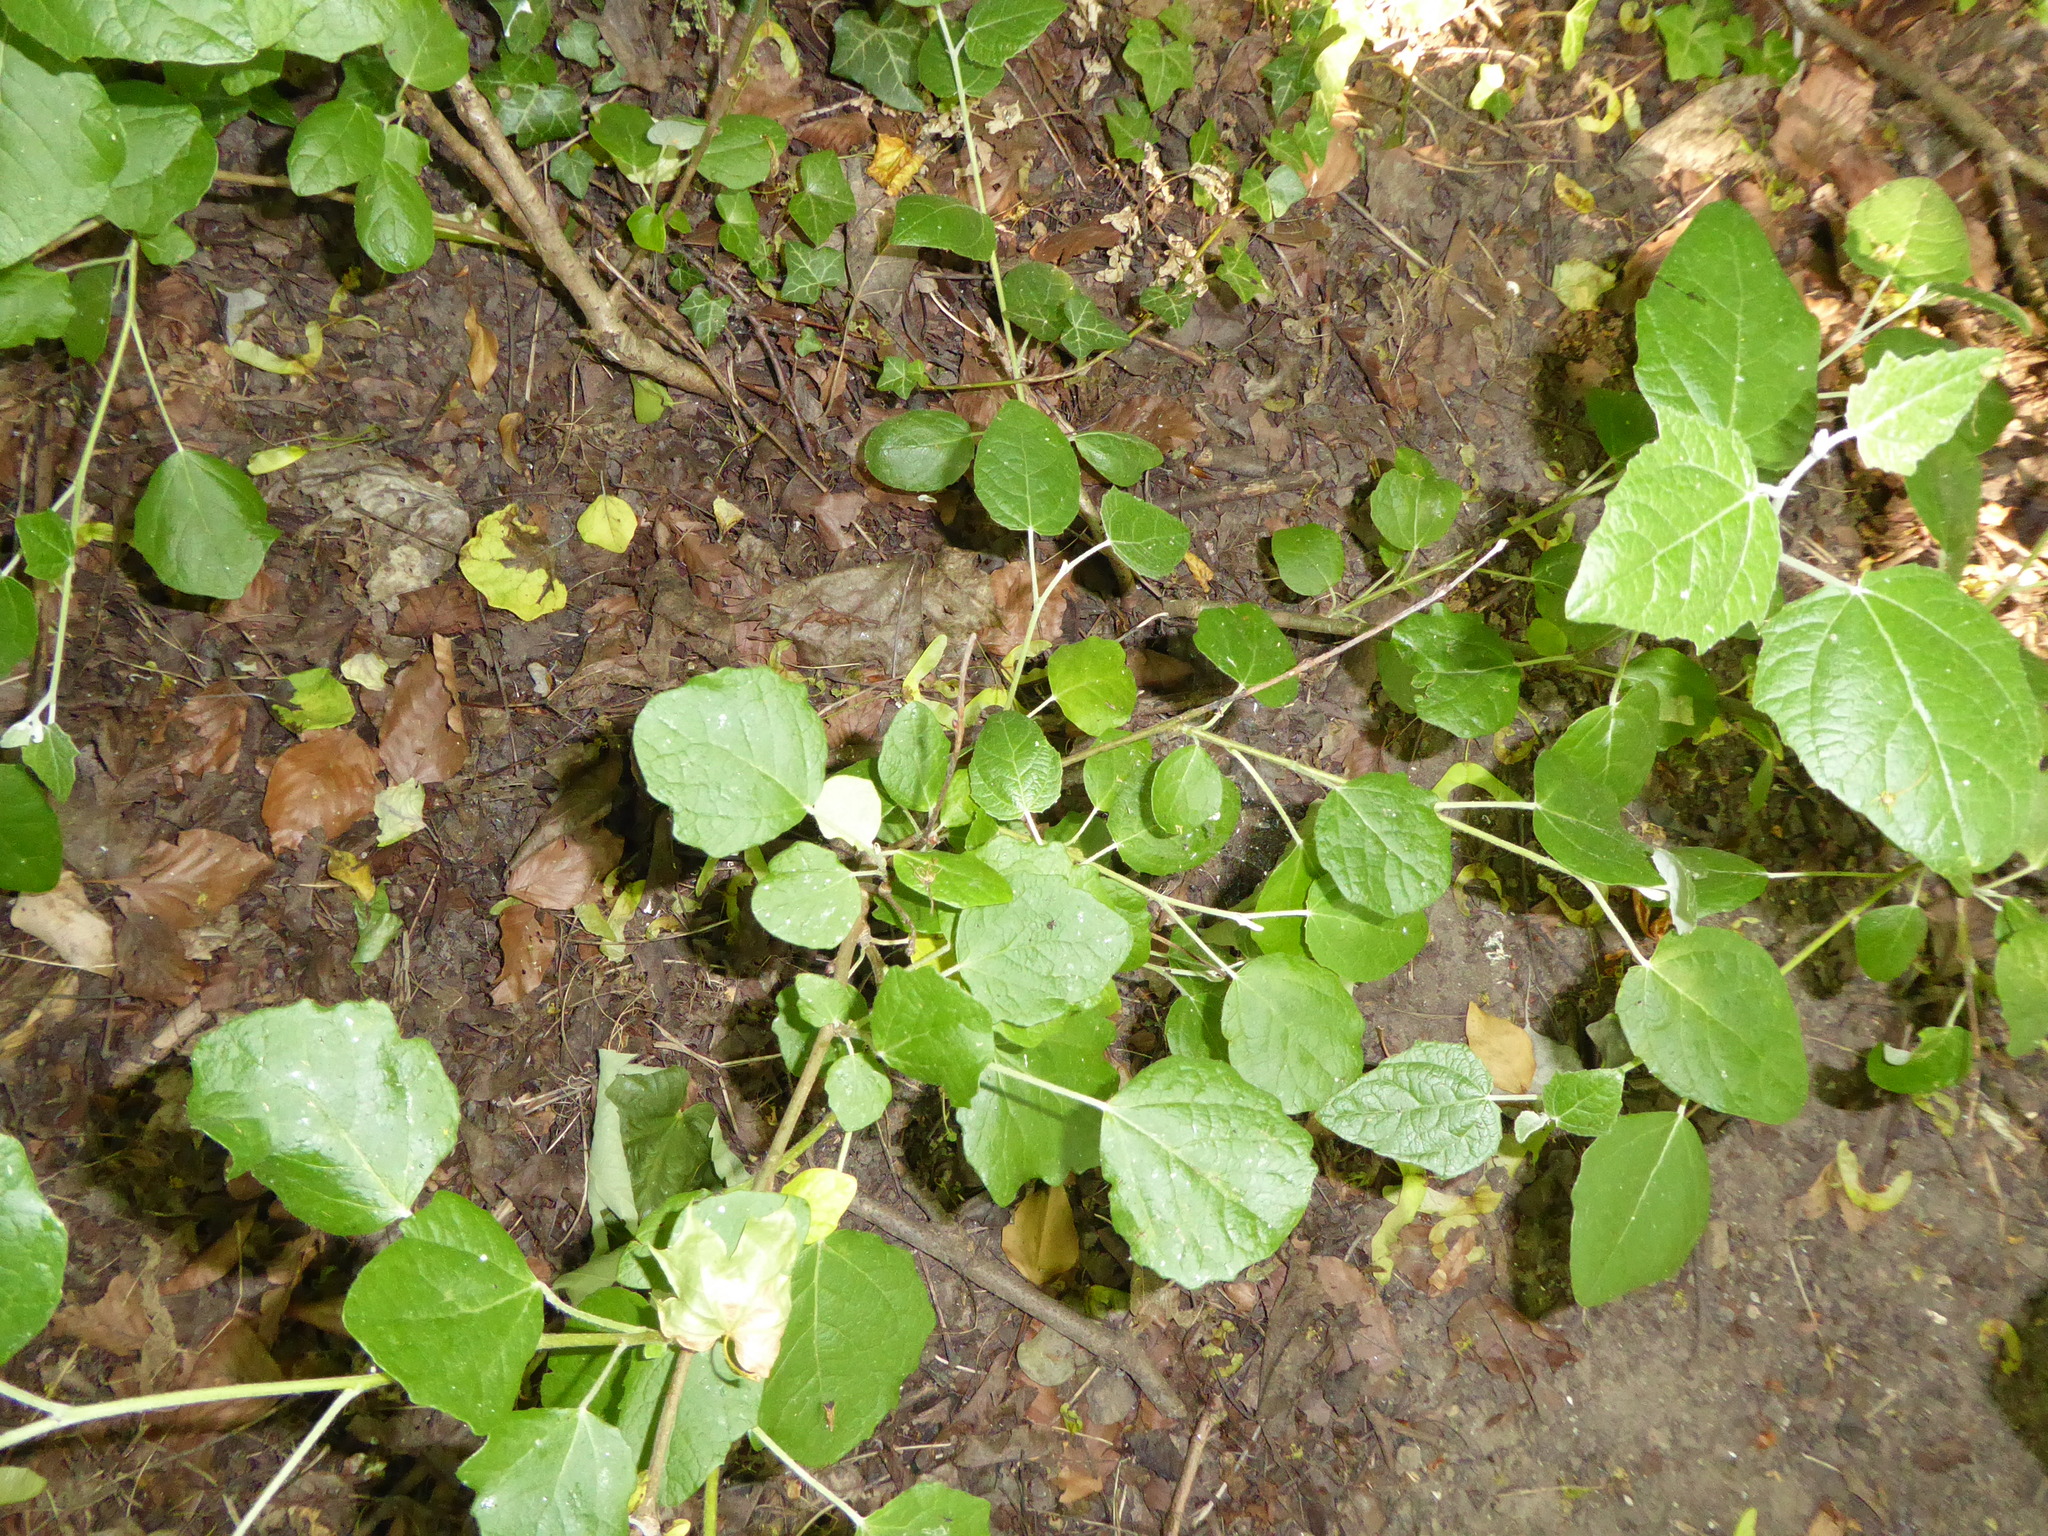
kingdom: Plantae
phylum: Tracheophyta
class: Magnoliopsida
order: Malpighiales
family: Salicaceae
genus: Populus
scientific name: Populus canescens
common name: Gray poplar
